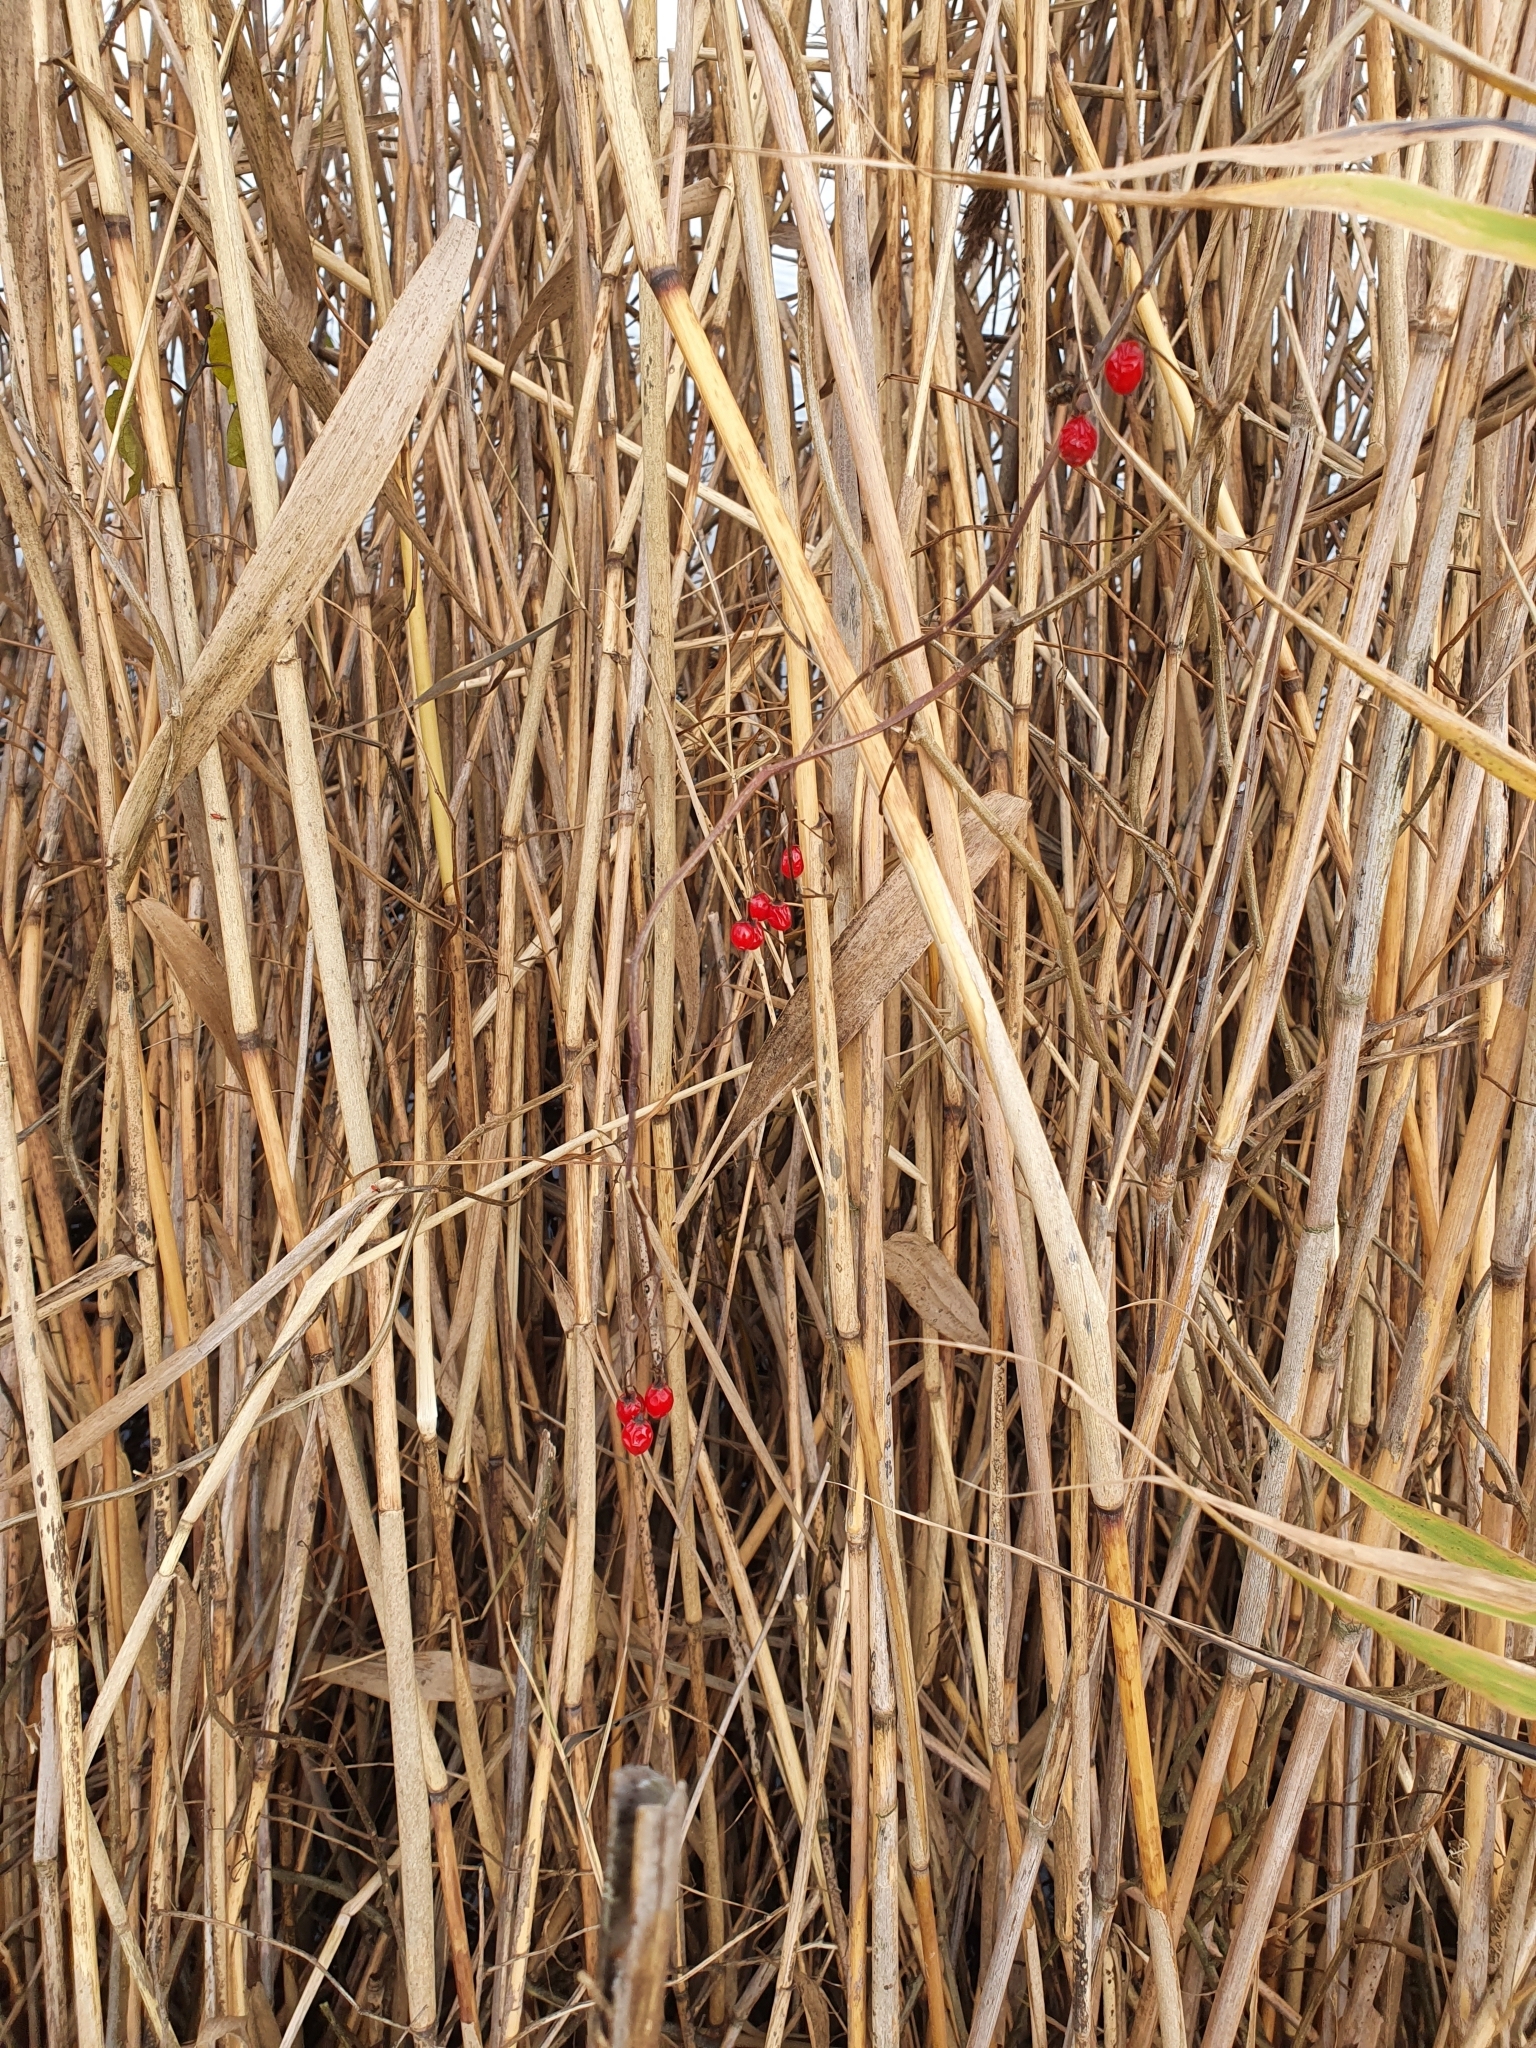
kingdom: Plantae
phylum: Tracheophyta
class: Magnoliopsida
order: Solanales
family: Solanaceae
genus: Solanum
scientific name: Solanum dulcamara
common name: Climbing nightshade
